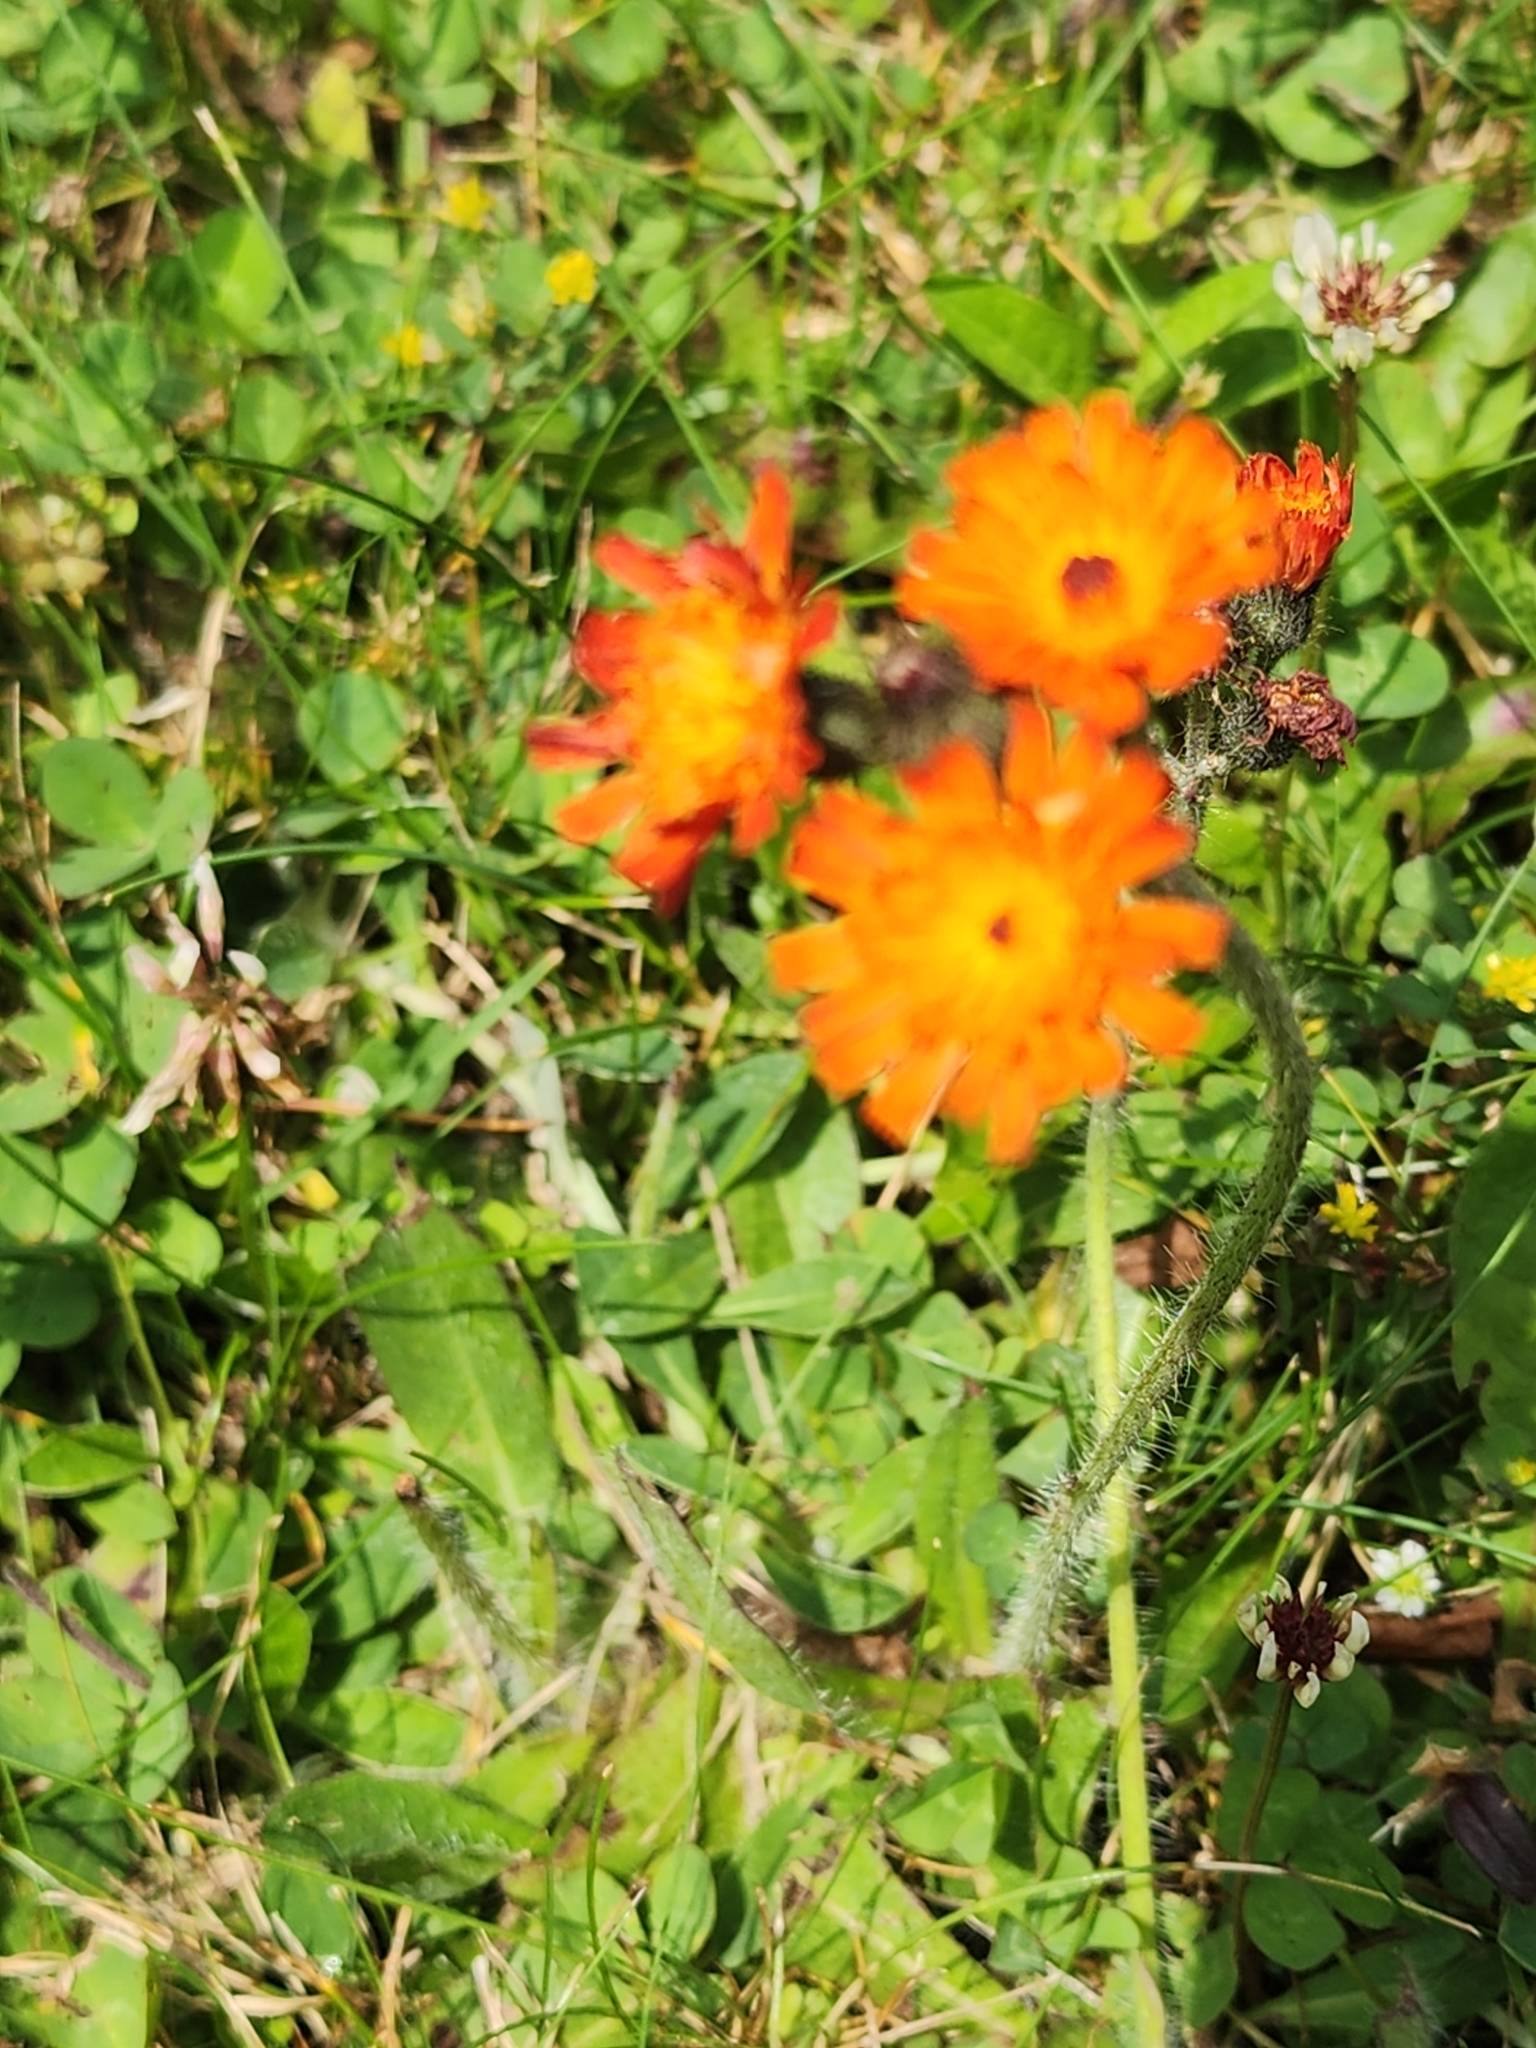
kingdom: Plantae
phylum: Tracheophyta
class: Magnoliopsida
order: Asterales
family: Asteraceae
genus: Pilosella
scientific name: Pilosella aurantiaca
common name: Fox-and-cubs
